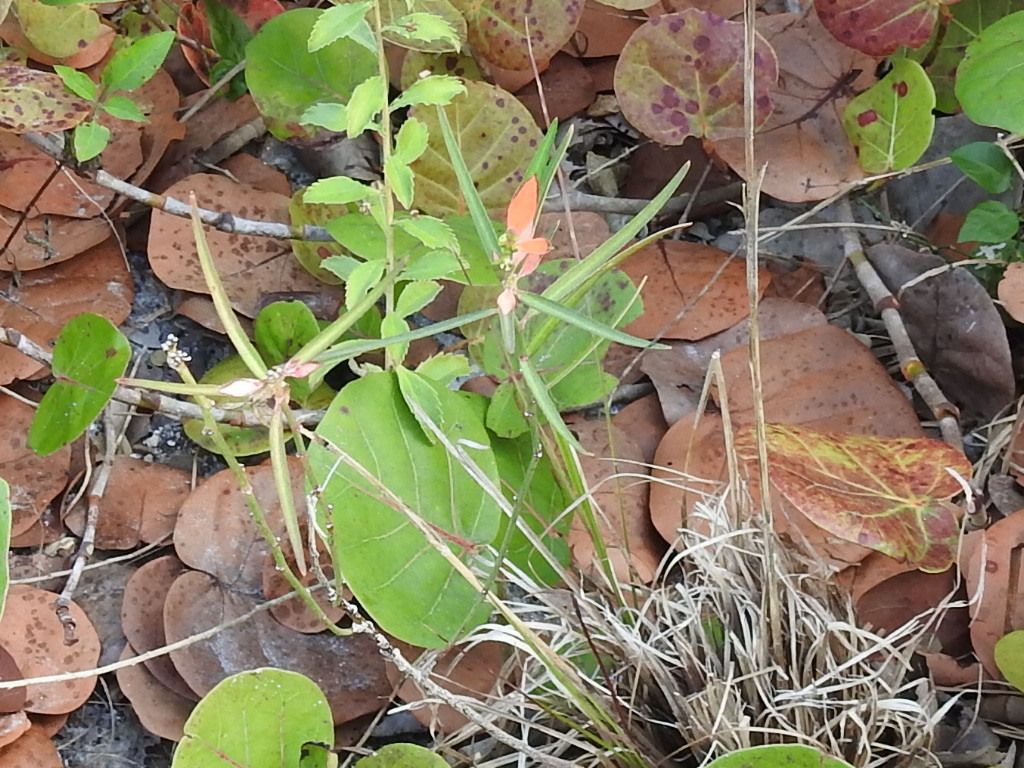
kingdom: Plantae
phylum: Tracheophyta
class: Magnoliopsida
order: Malpighiales
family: Euphorbiaceae
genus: Euphorbia
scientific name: Euphorbia heterophylla
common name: Mexican fireplant
